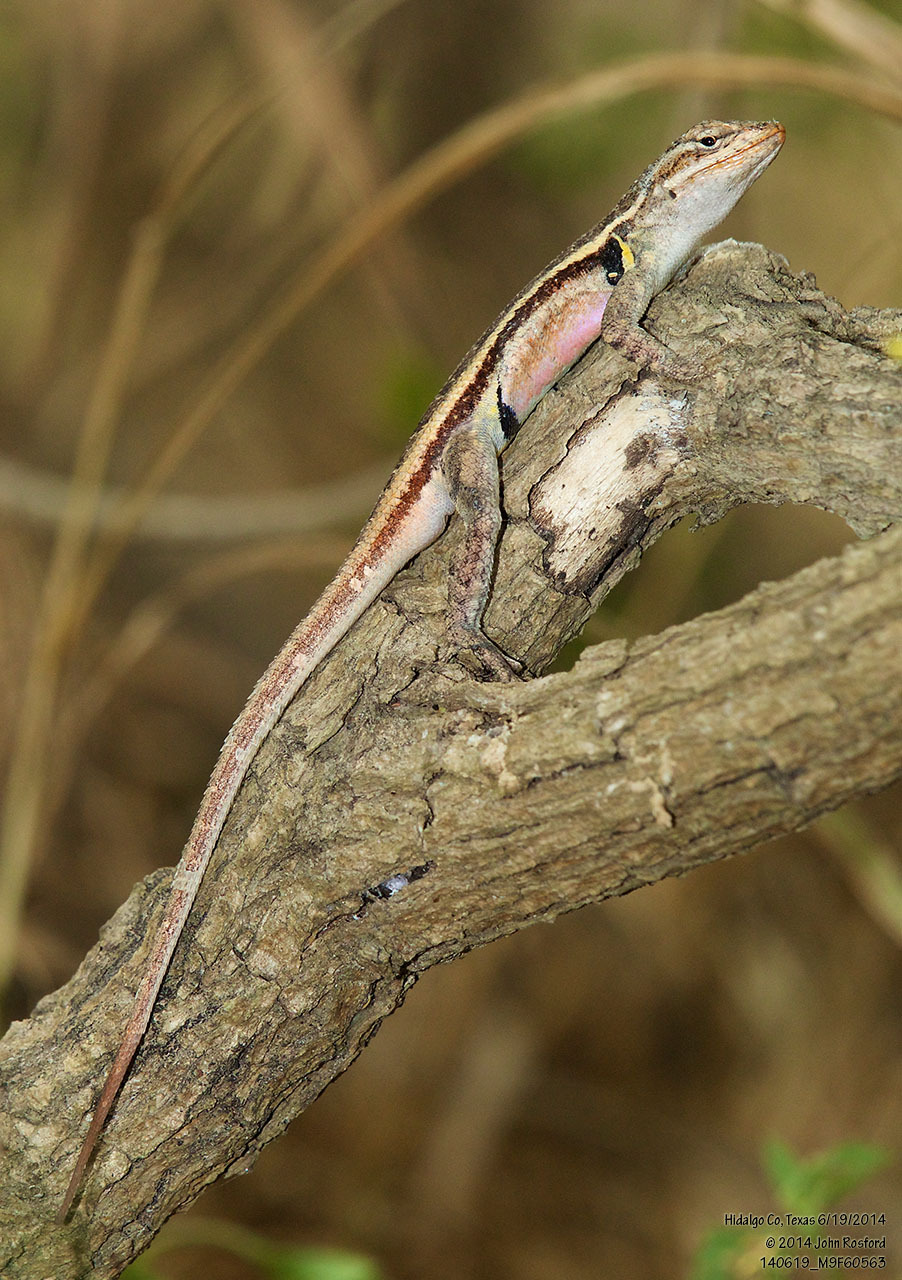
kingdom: Animalia
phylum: Chordata
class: Squamata
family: Phrynosomatidae
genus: Sceloporus
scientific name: Sceloporus variabilis
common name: Rosebelly lizard
